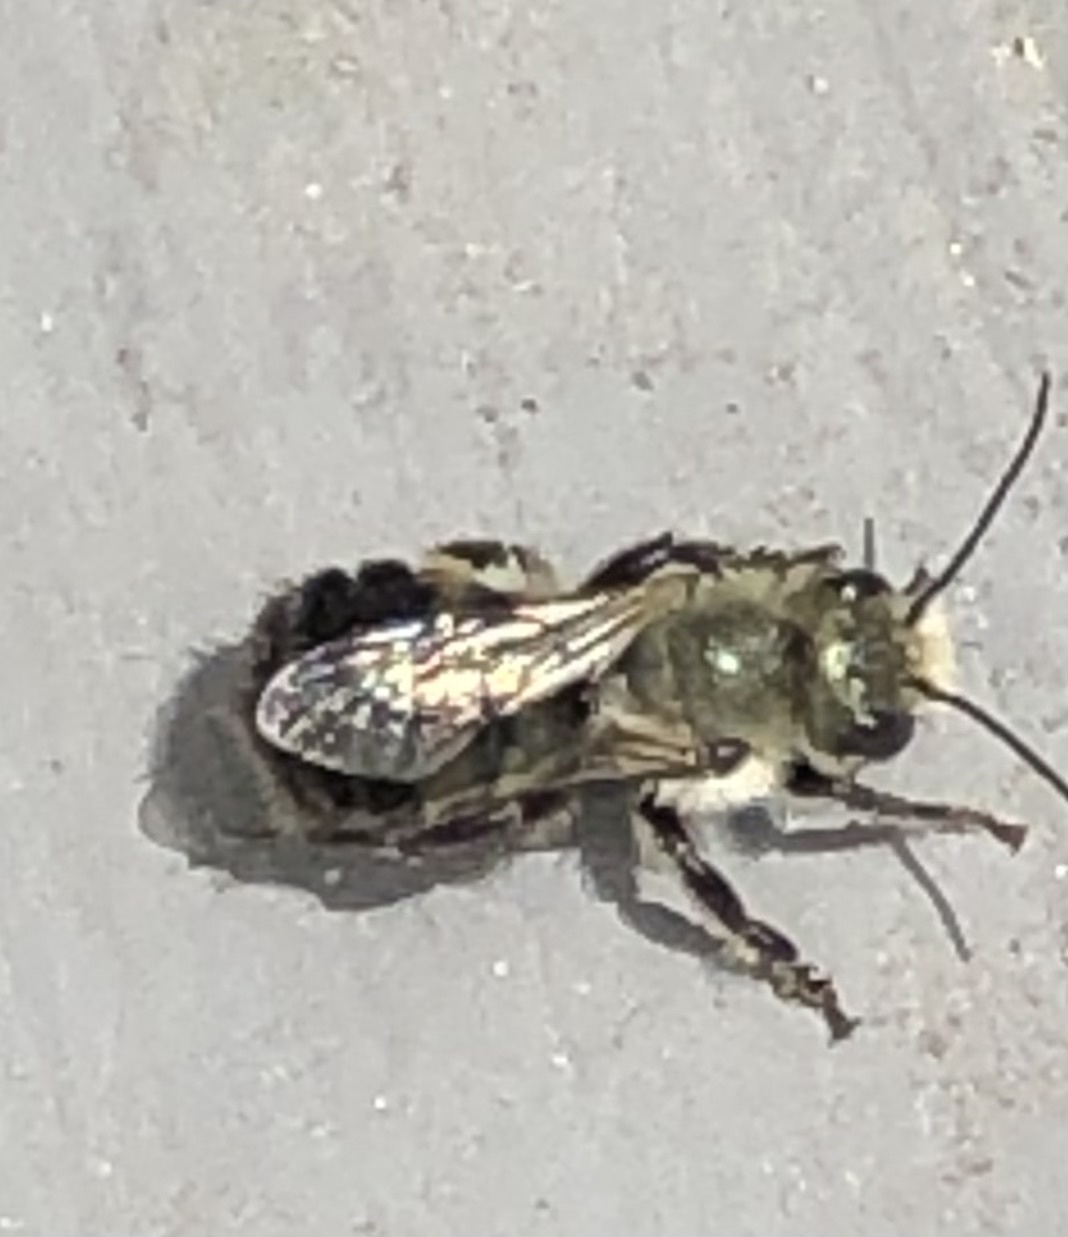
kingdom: Animalia
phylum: Arthropoda
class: Insecta
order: Hymenoptera
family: Megachilidae
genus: Osmia
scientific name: Osmia bucephala
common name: Bufflehead mason bee
